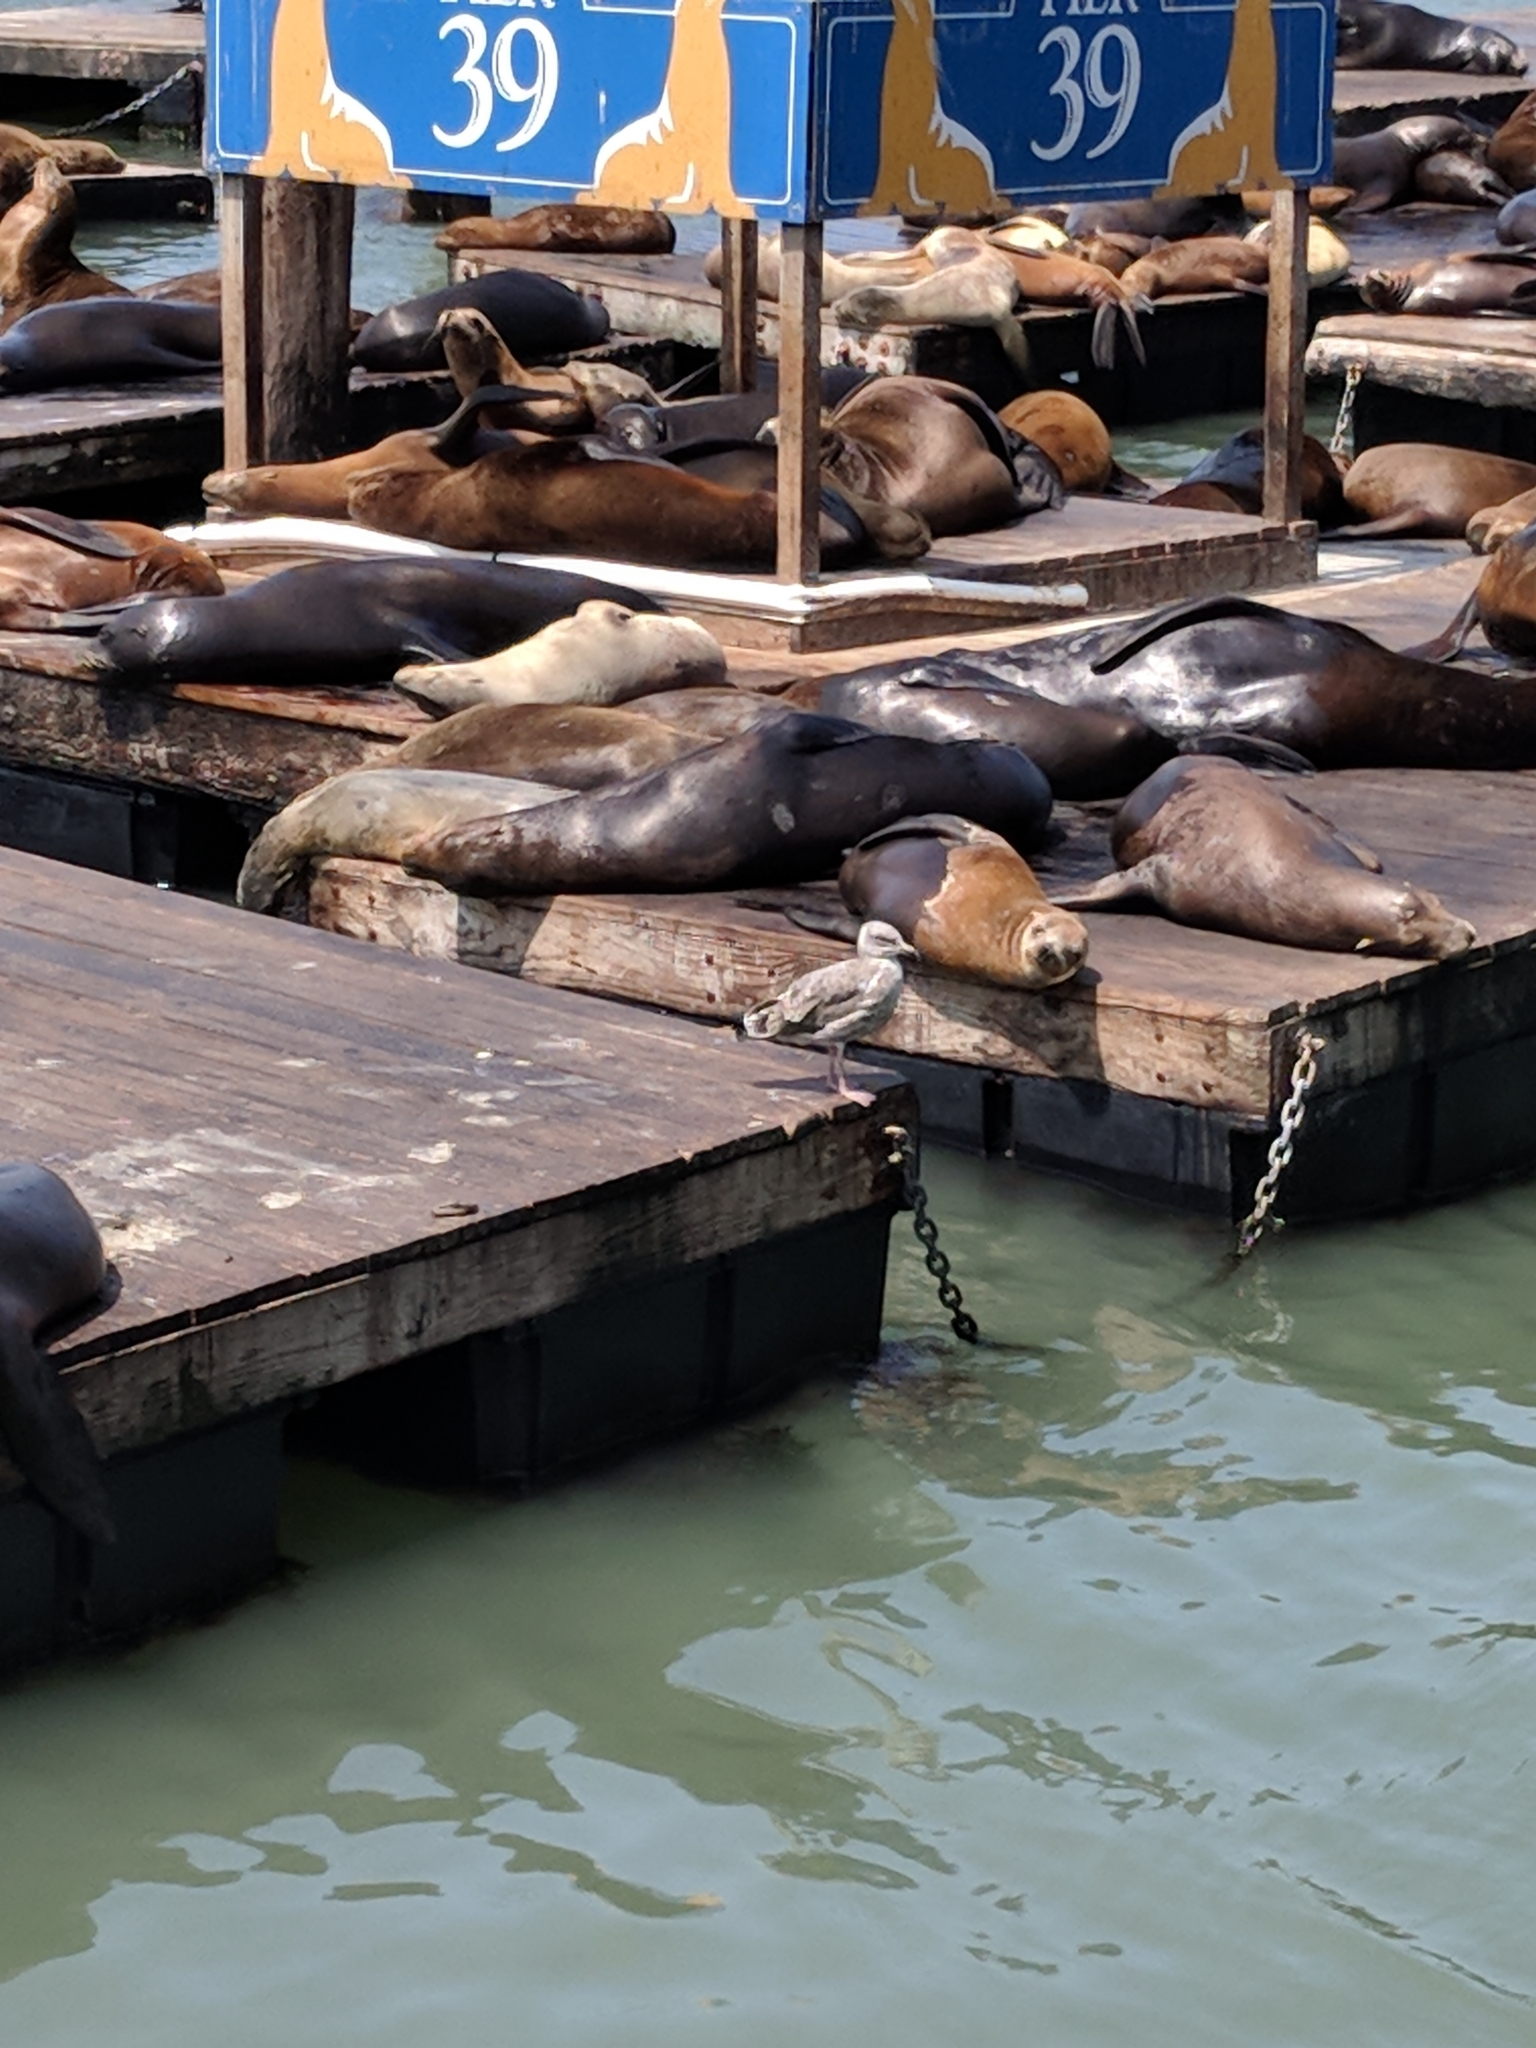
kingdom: Animalia
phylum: Chordata
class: Mammalia
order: Carnivora
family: Otariidae
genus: Zalophus
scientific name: Zalophus californianus
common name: California sea lion
